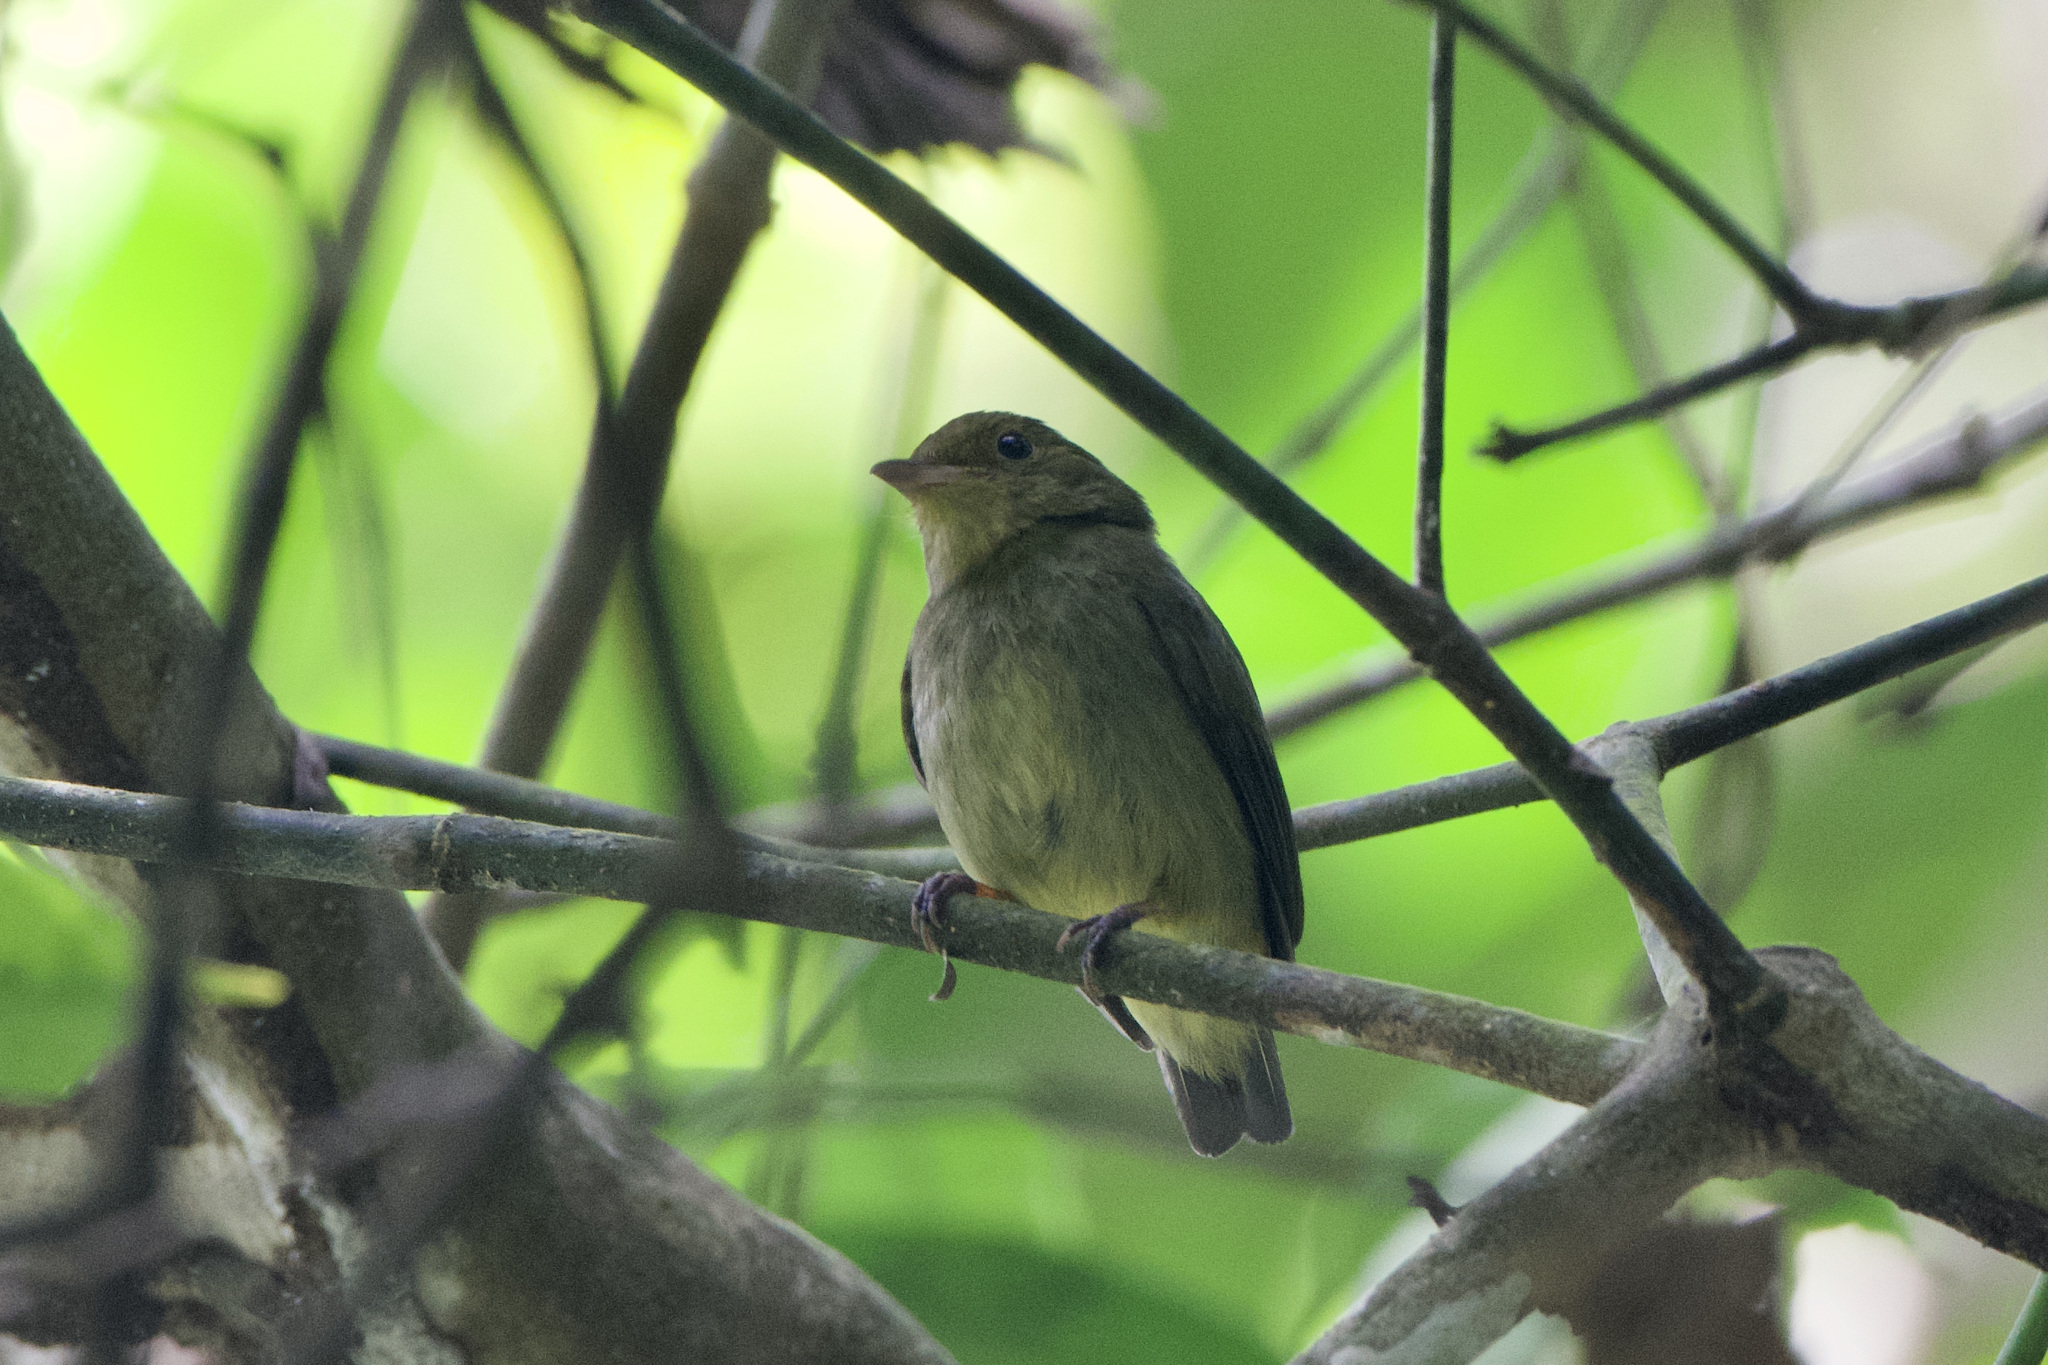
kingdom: Animalia
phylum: Chordata
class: Aves
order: Passeriformes
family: Pipridae
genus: Pipra
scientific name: Pipra mentalis
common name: Red-capped manakin
